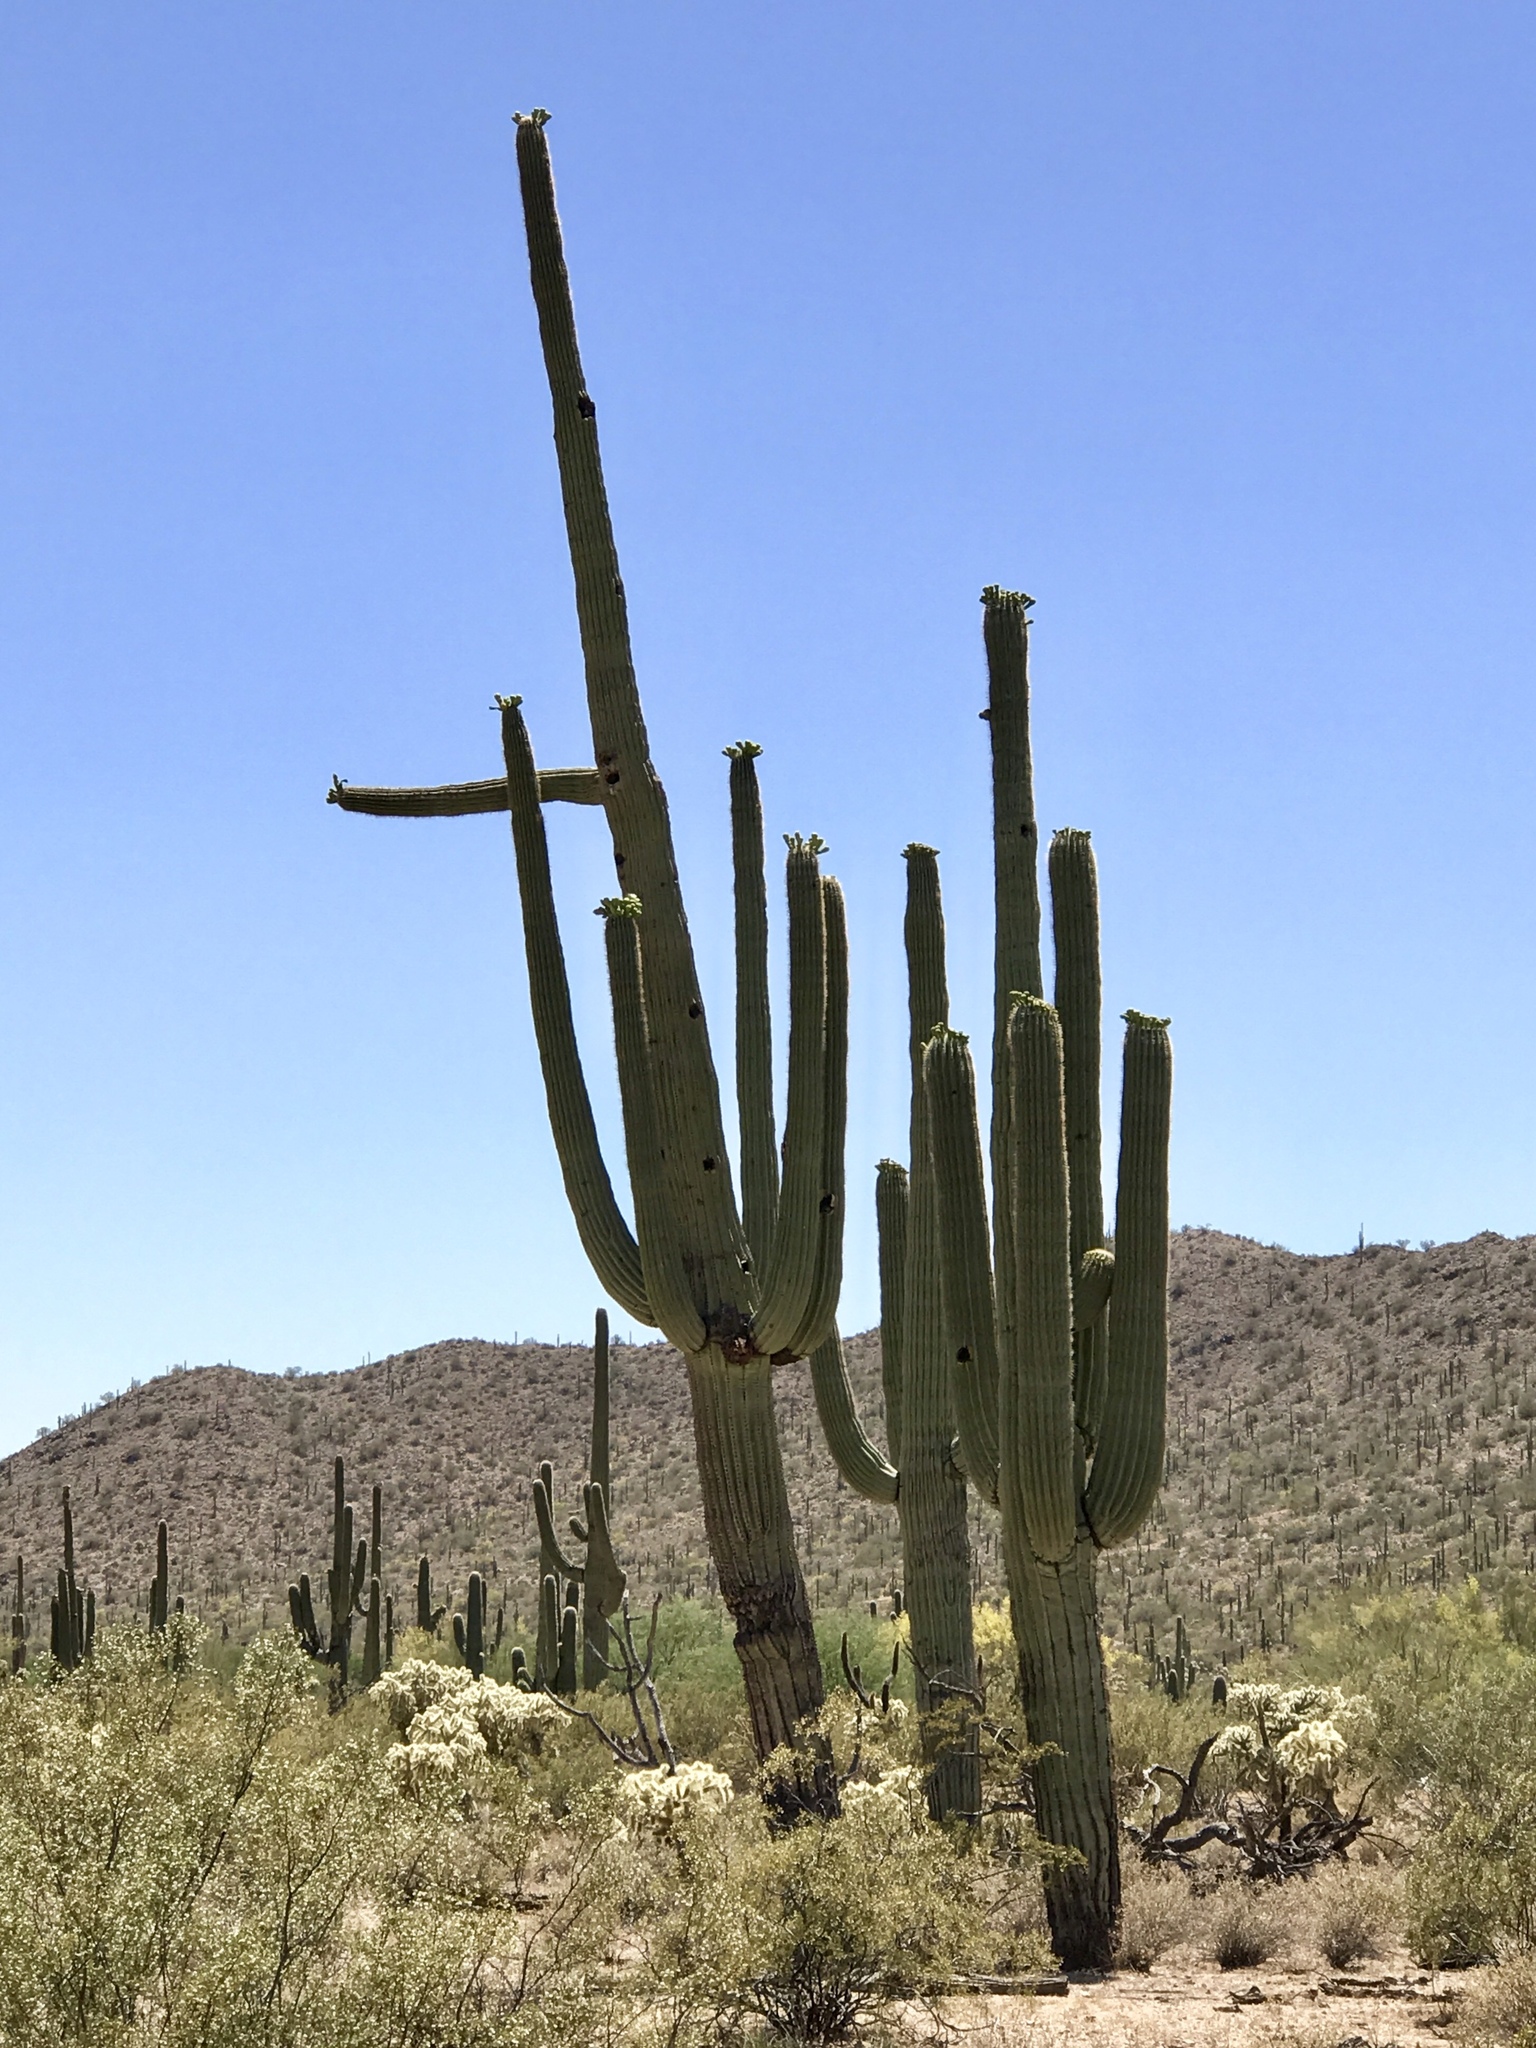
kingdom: Plantae
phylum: Tracheophyta
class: Magnoliopsida
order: Caryophyllales
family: Cactaceae
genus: Carnegiea
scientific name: Carnegiea gigantea
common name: Saguaro
